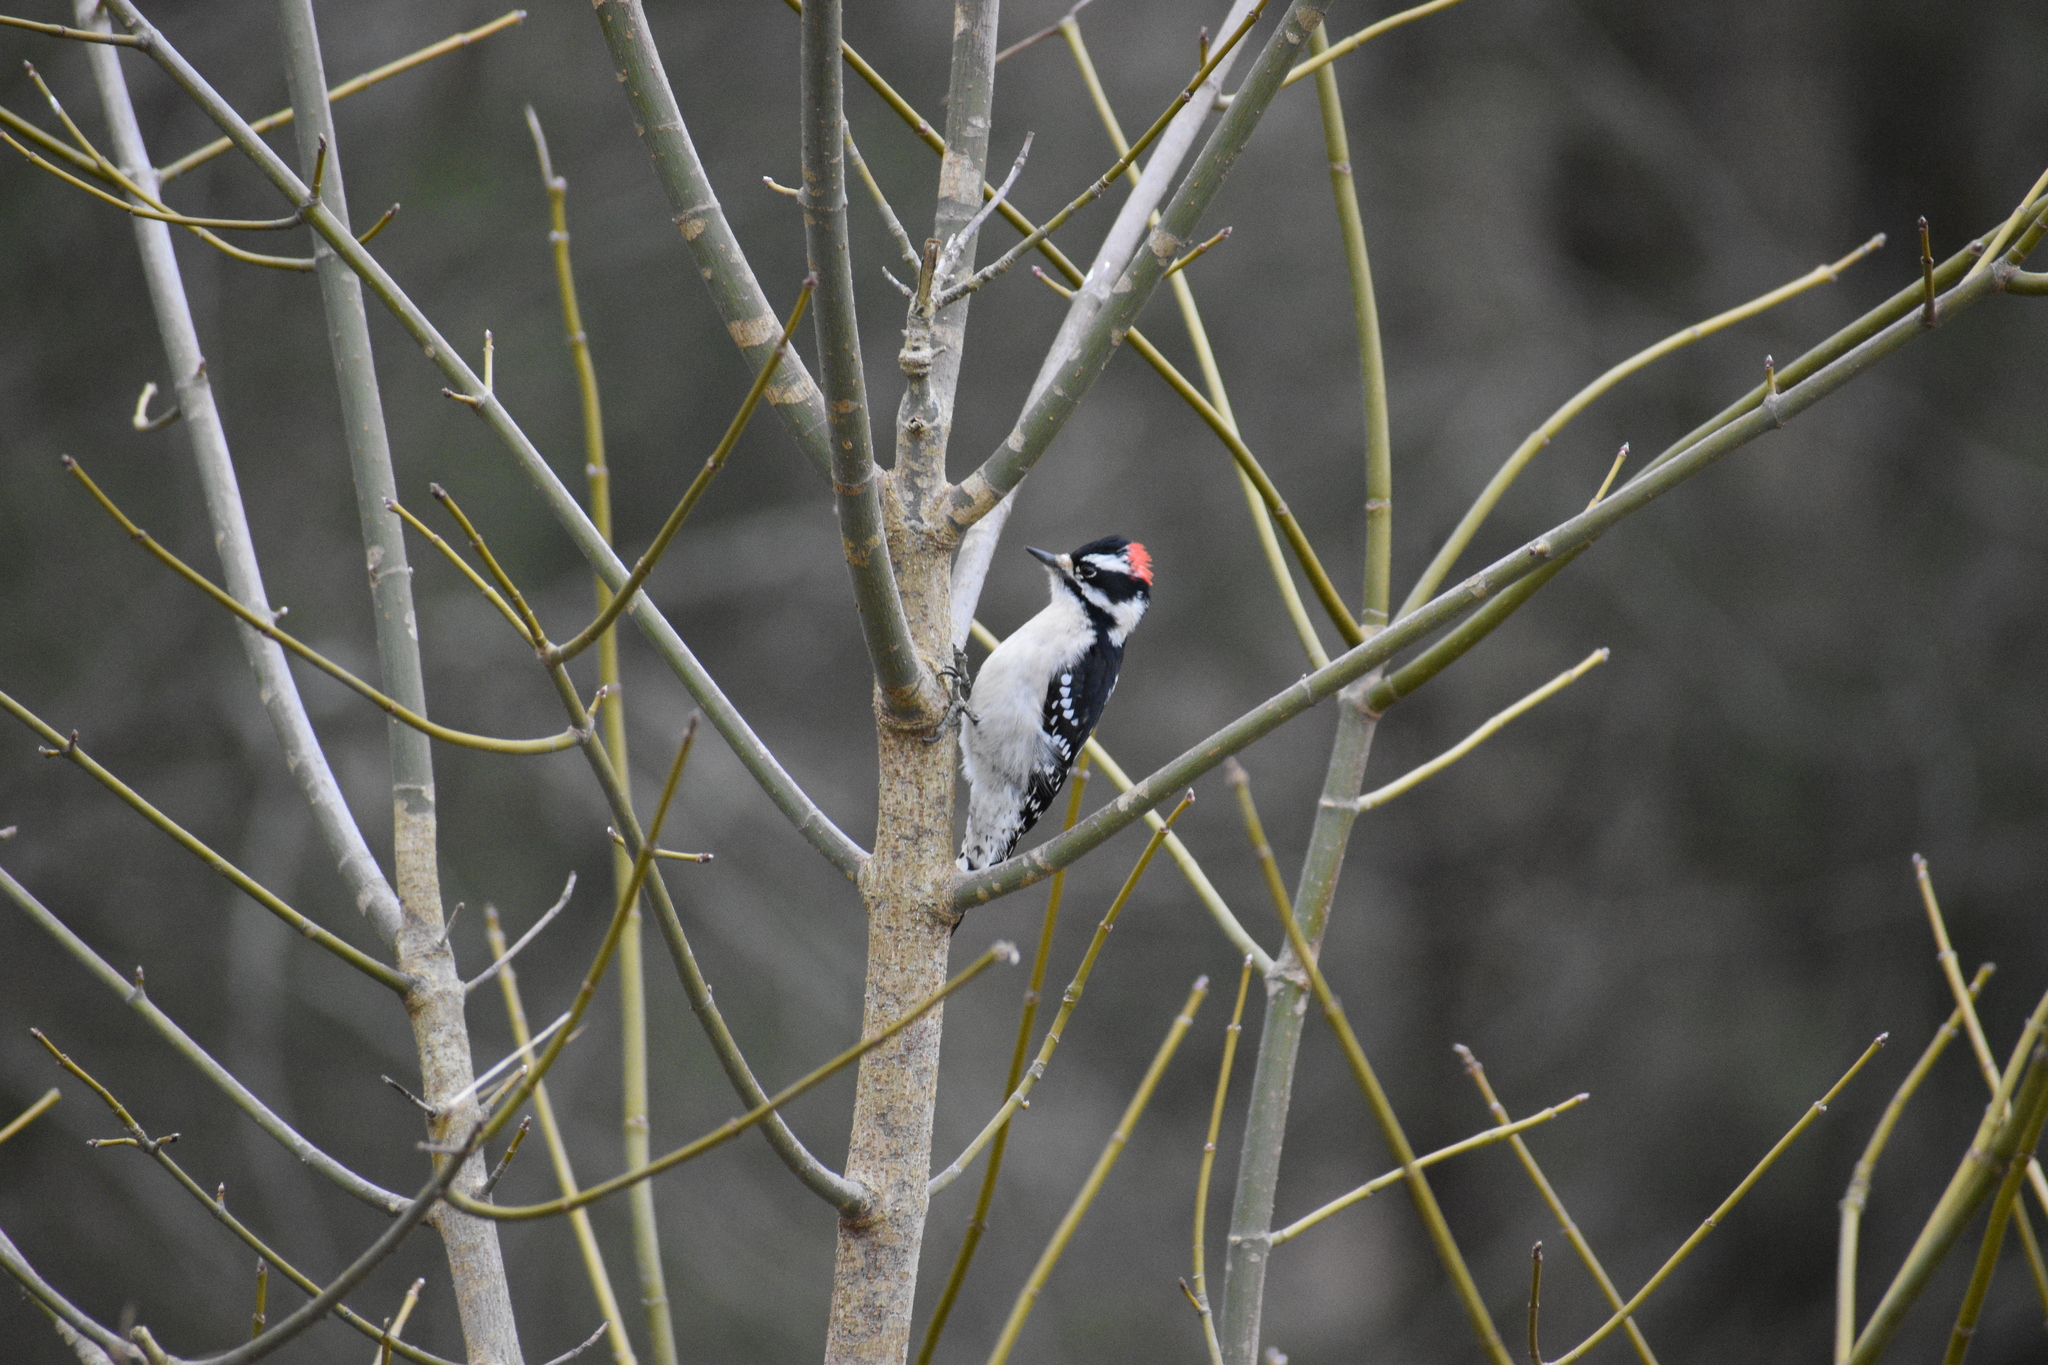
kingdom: Animalia
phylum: Chordata
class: Aves
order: Piciformes
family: Picidae
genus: Dryobates
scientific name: Dryobates pubescens
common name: Downy woodpecker
